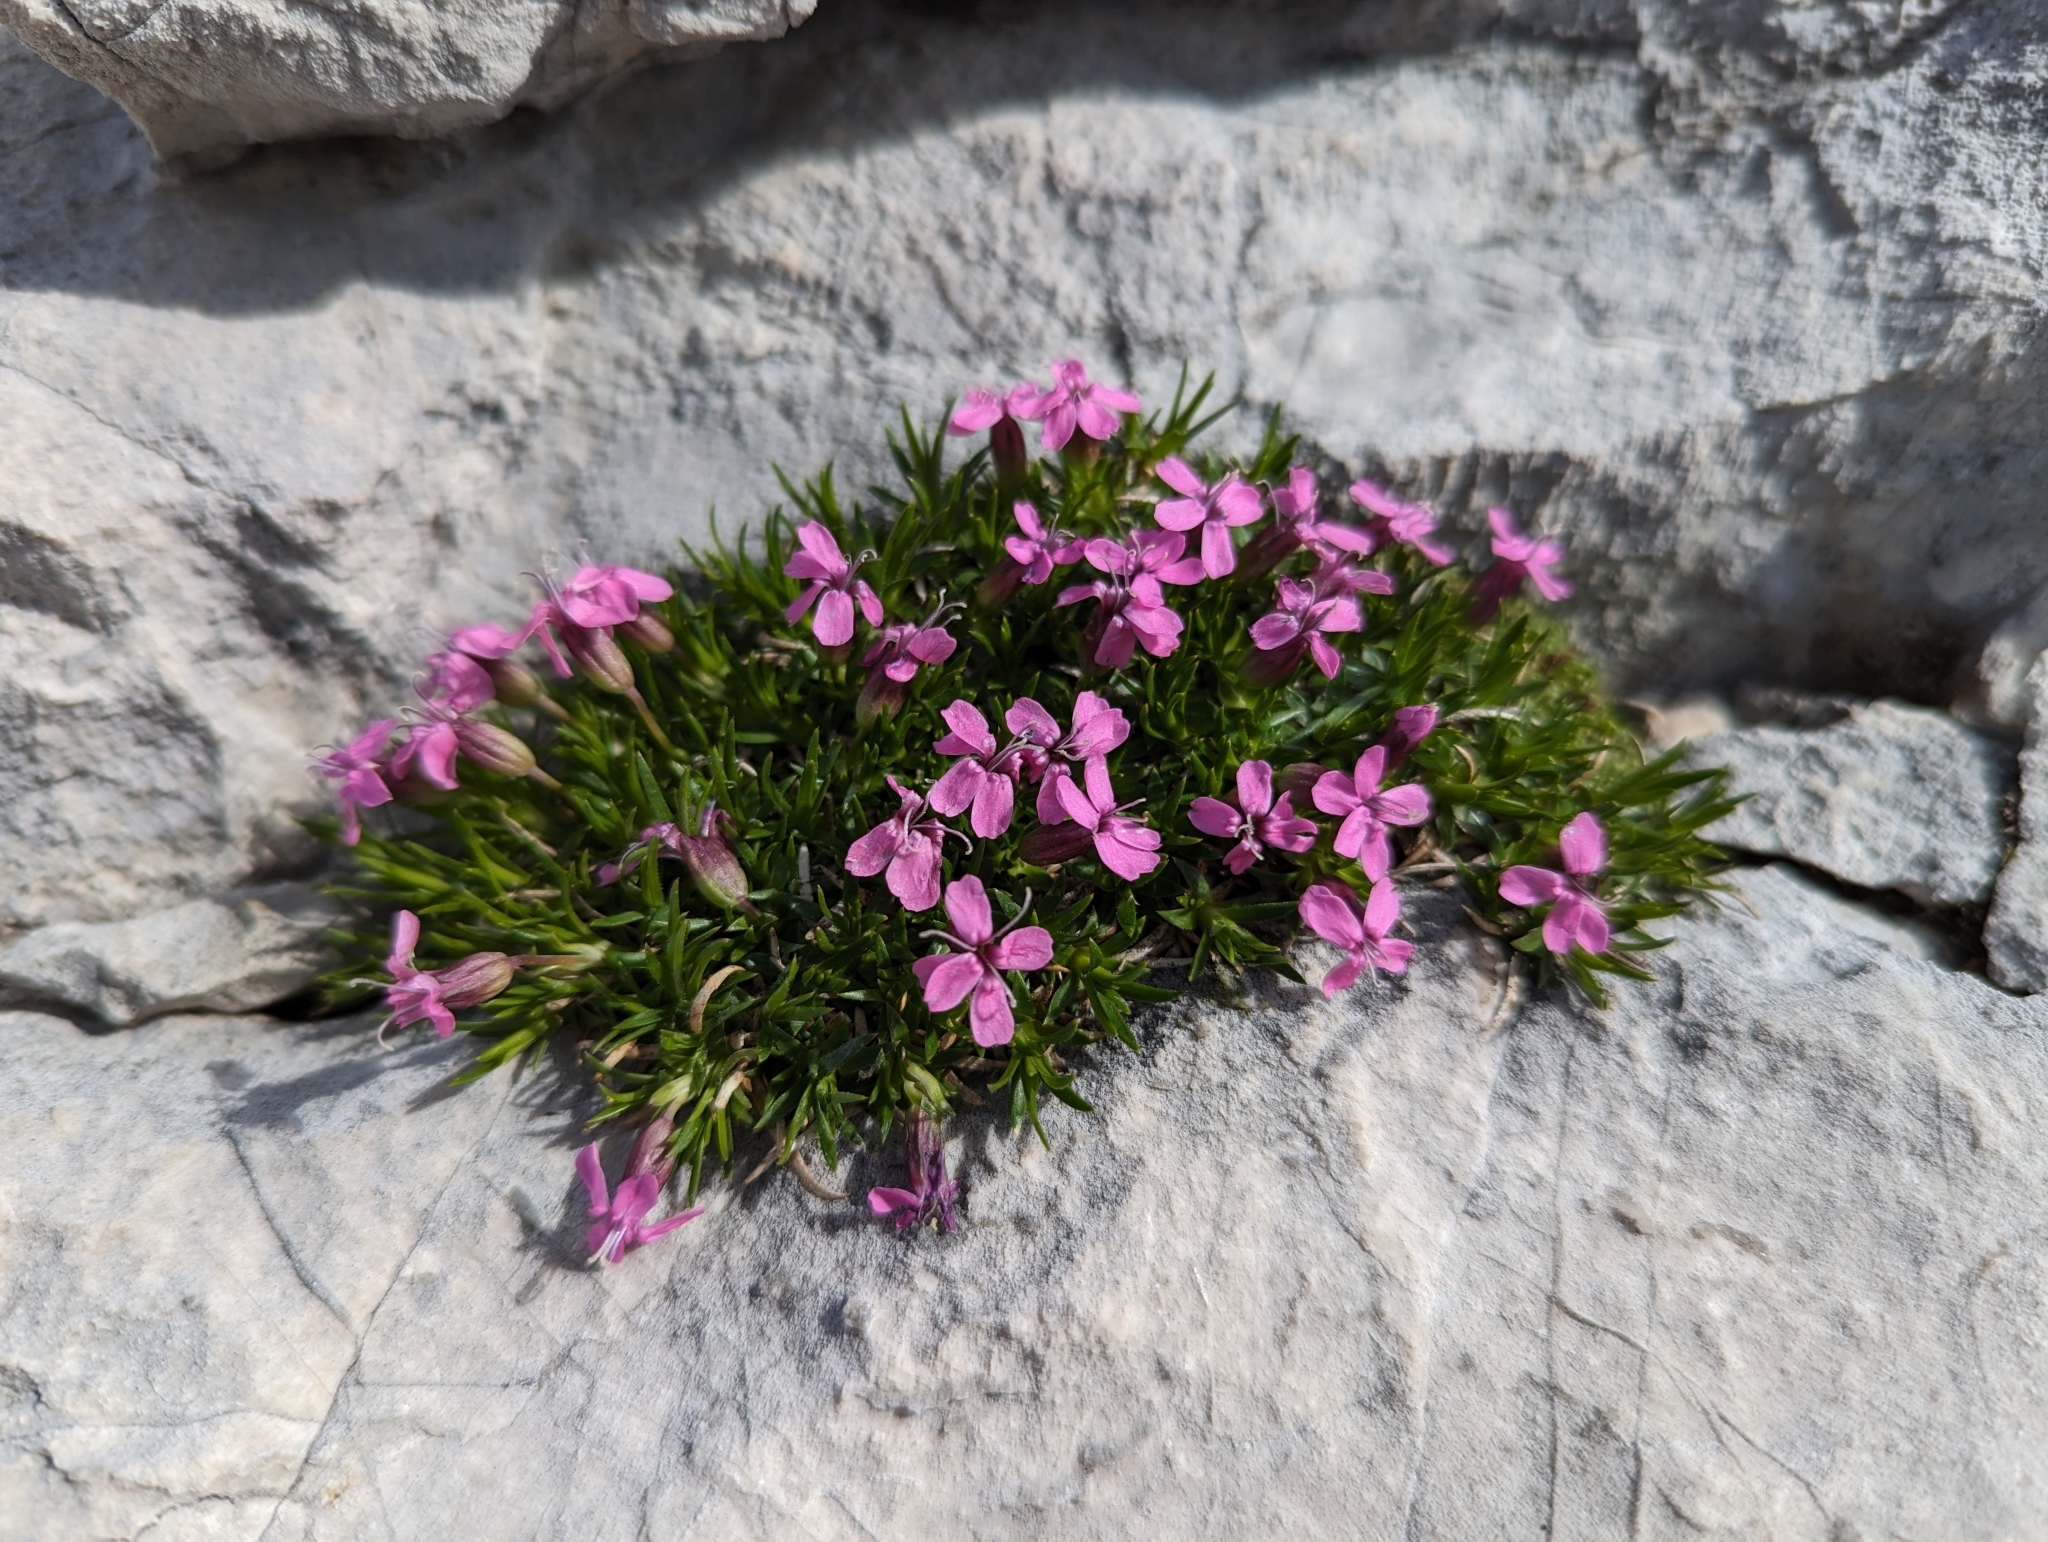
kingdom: Plantae
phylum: Tracheophyta
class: Magnoliopsida
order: Caryophyllales
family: Caryophyllaceae
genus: Silene
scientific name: Silene acaulis
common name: Moss campion
